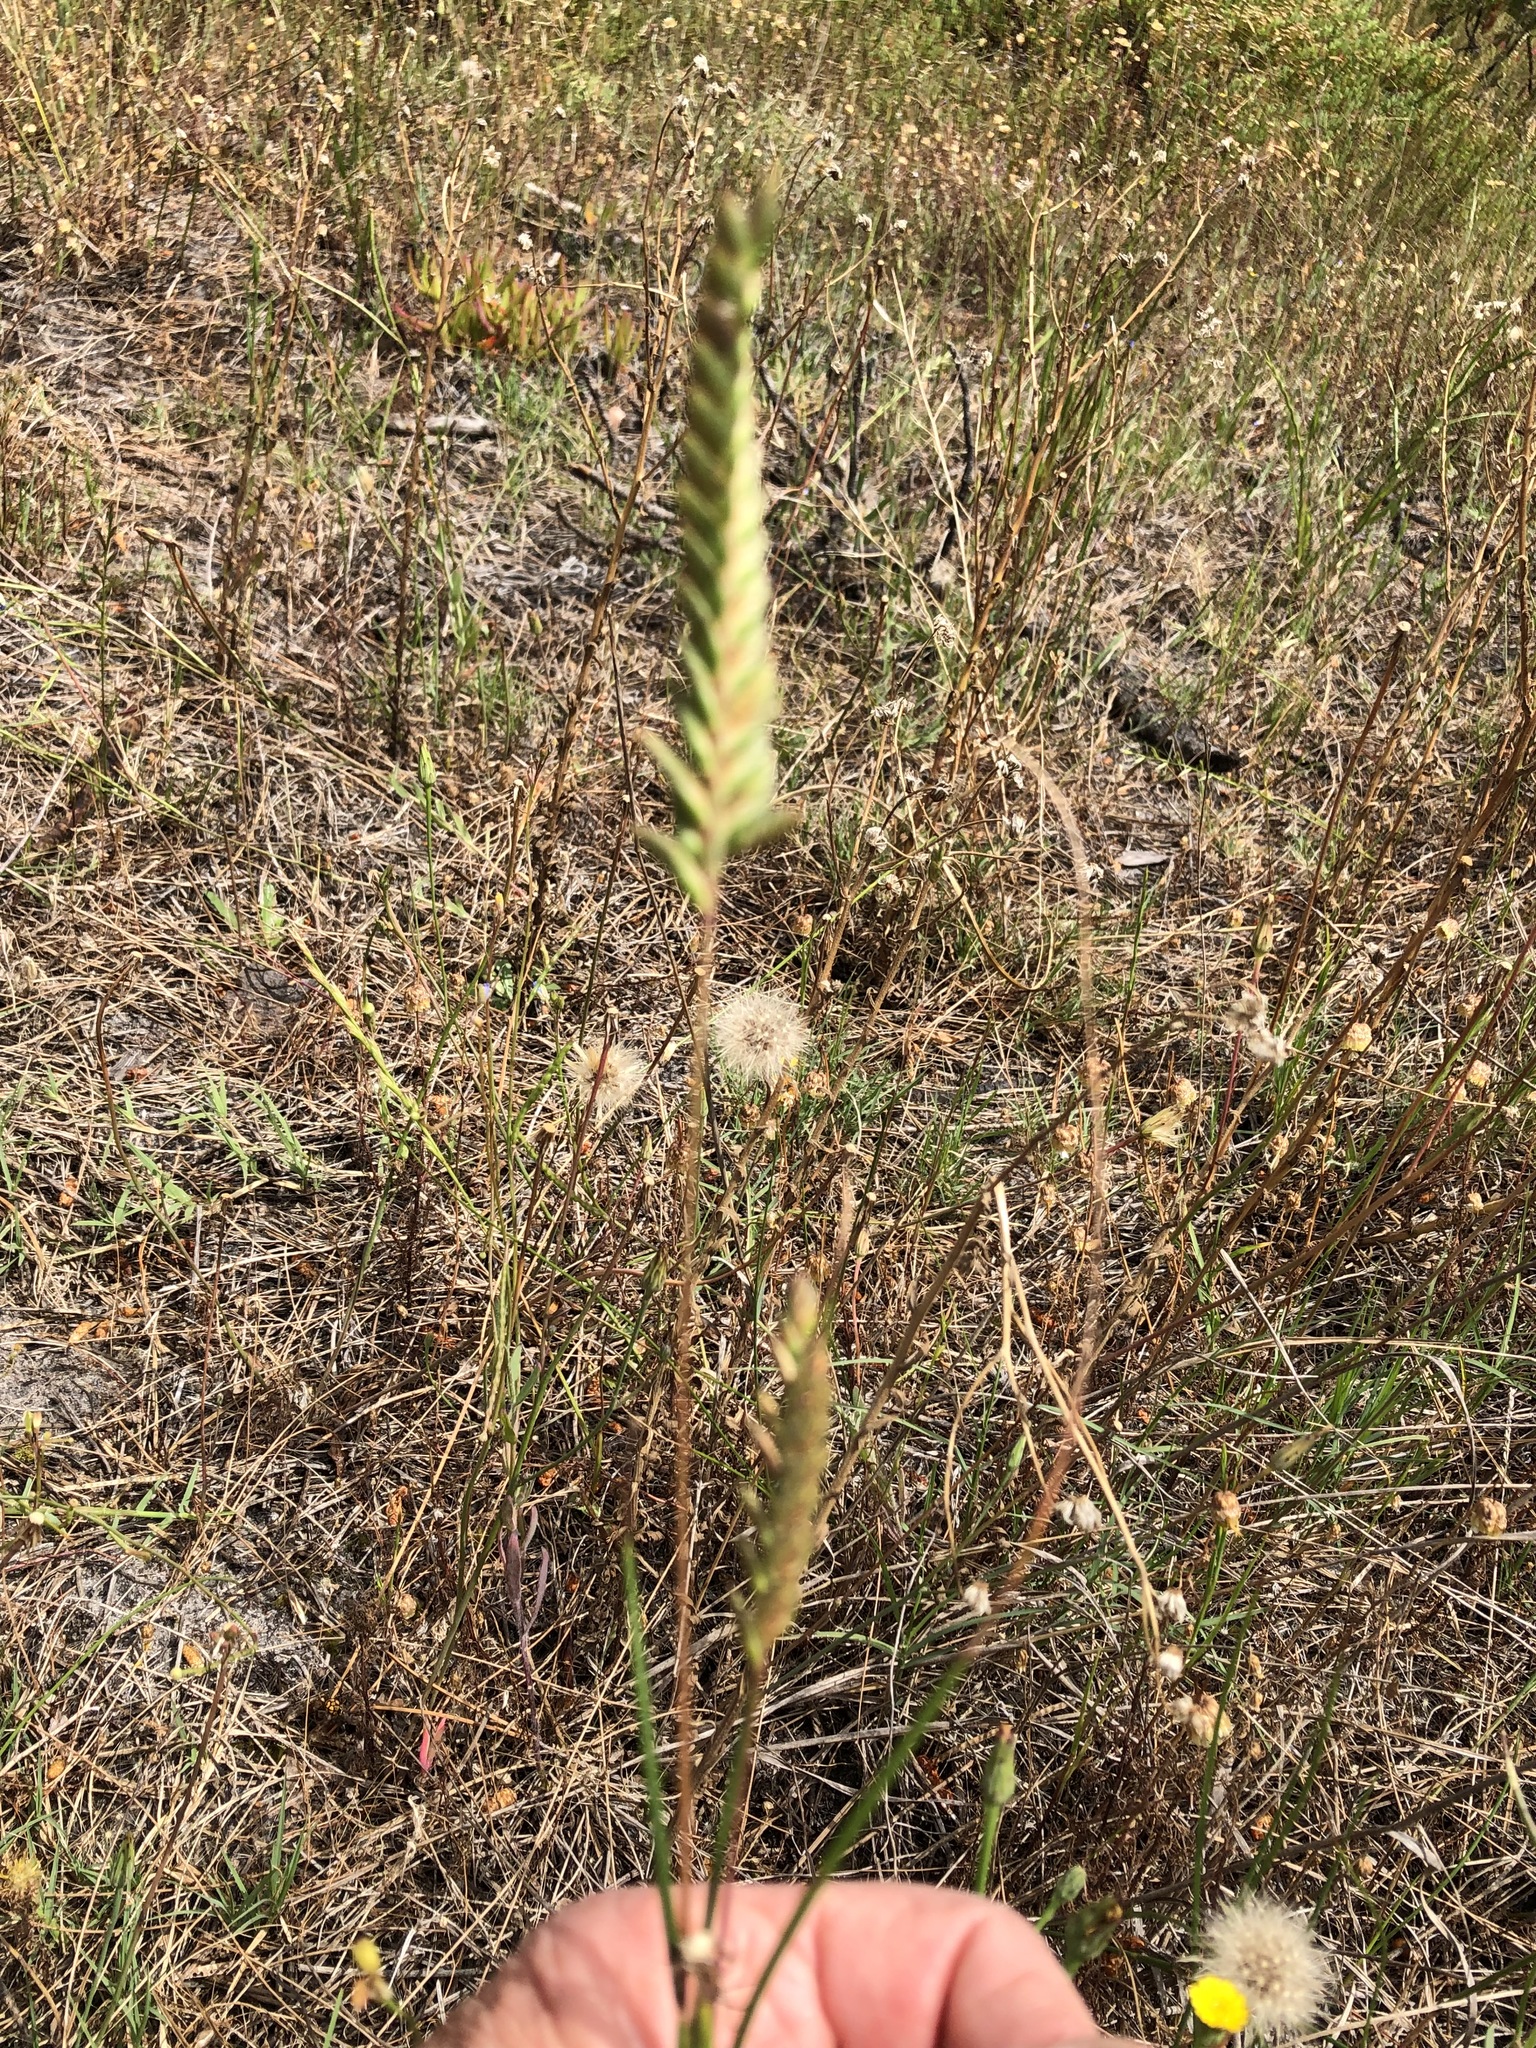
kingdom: Plantae
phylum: Tracheophyta
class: Liliopsida
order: Poales
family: Poaceae
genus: Tribolium
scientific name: Tribolium uniolae
